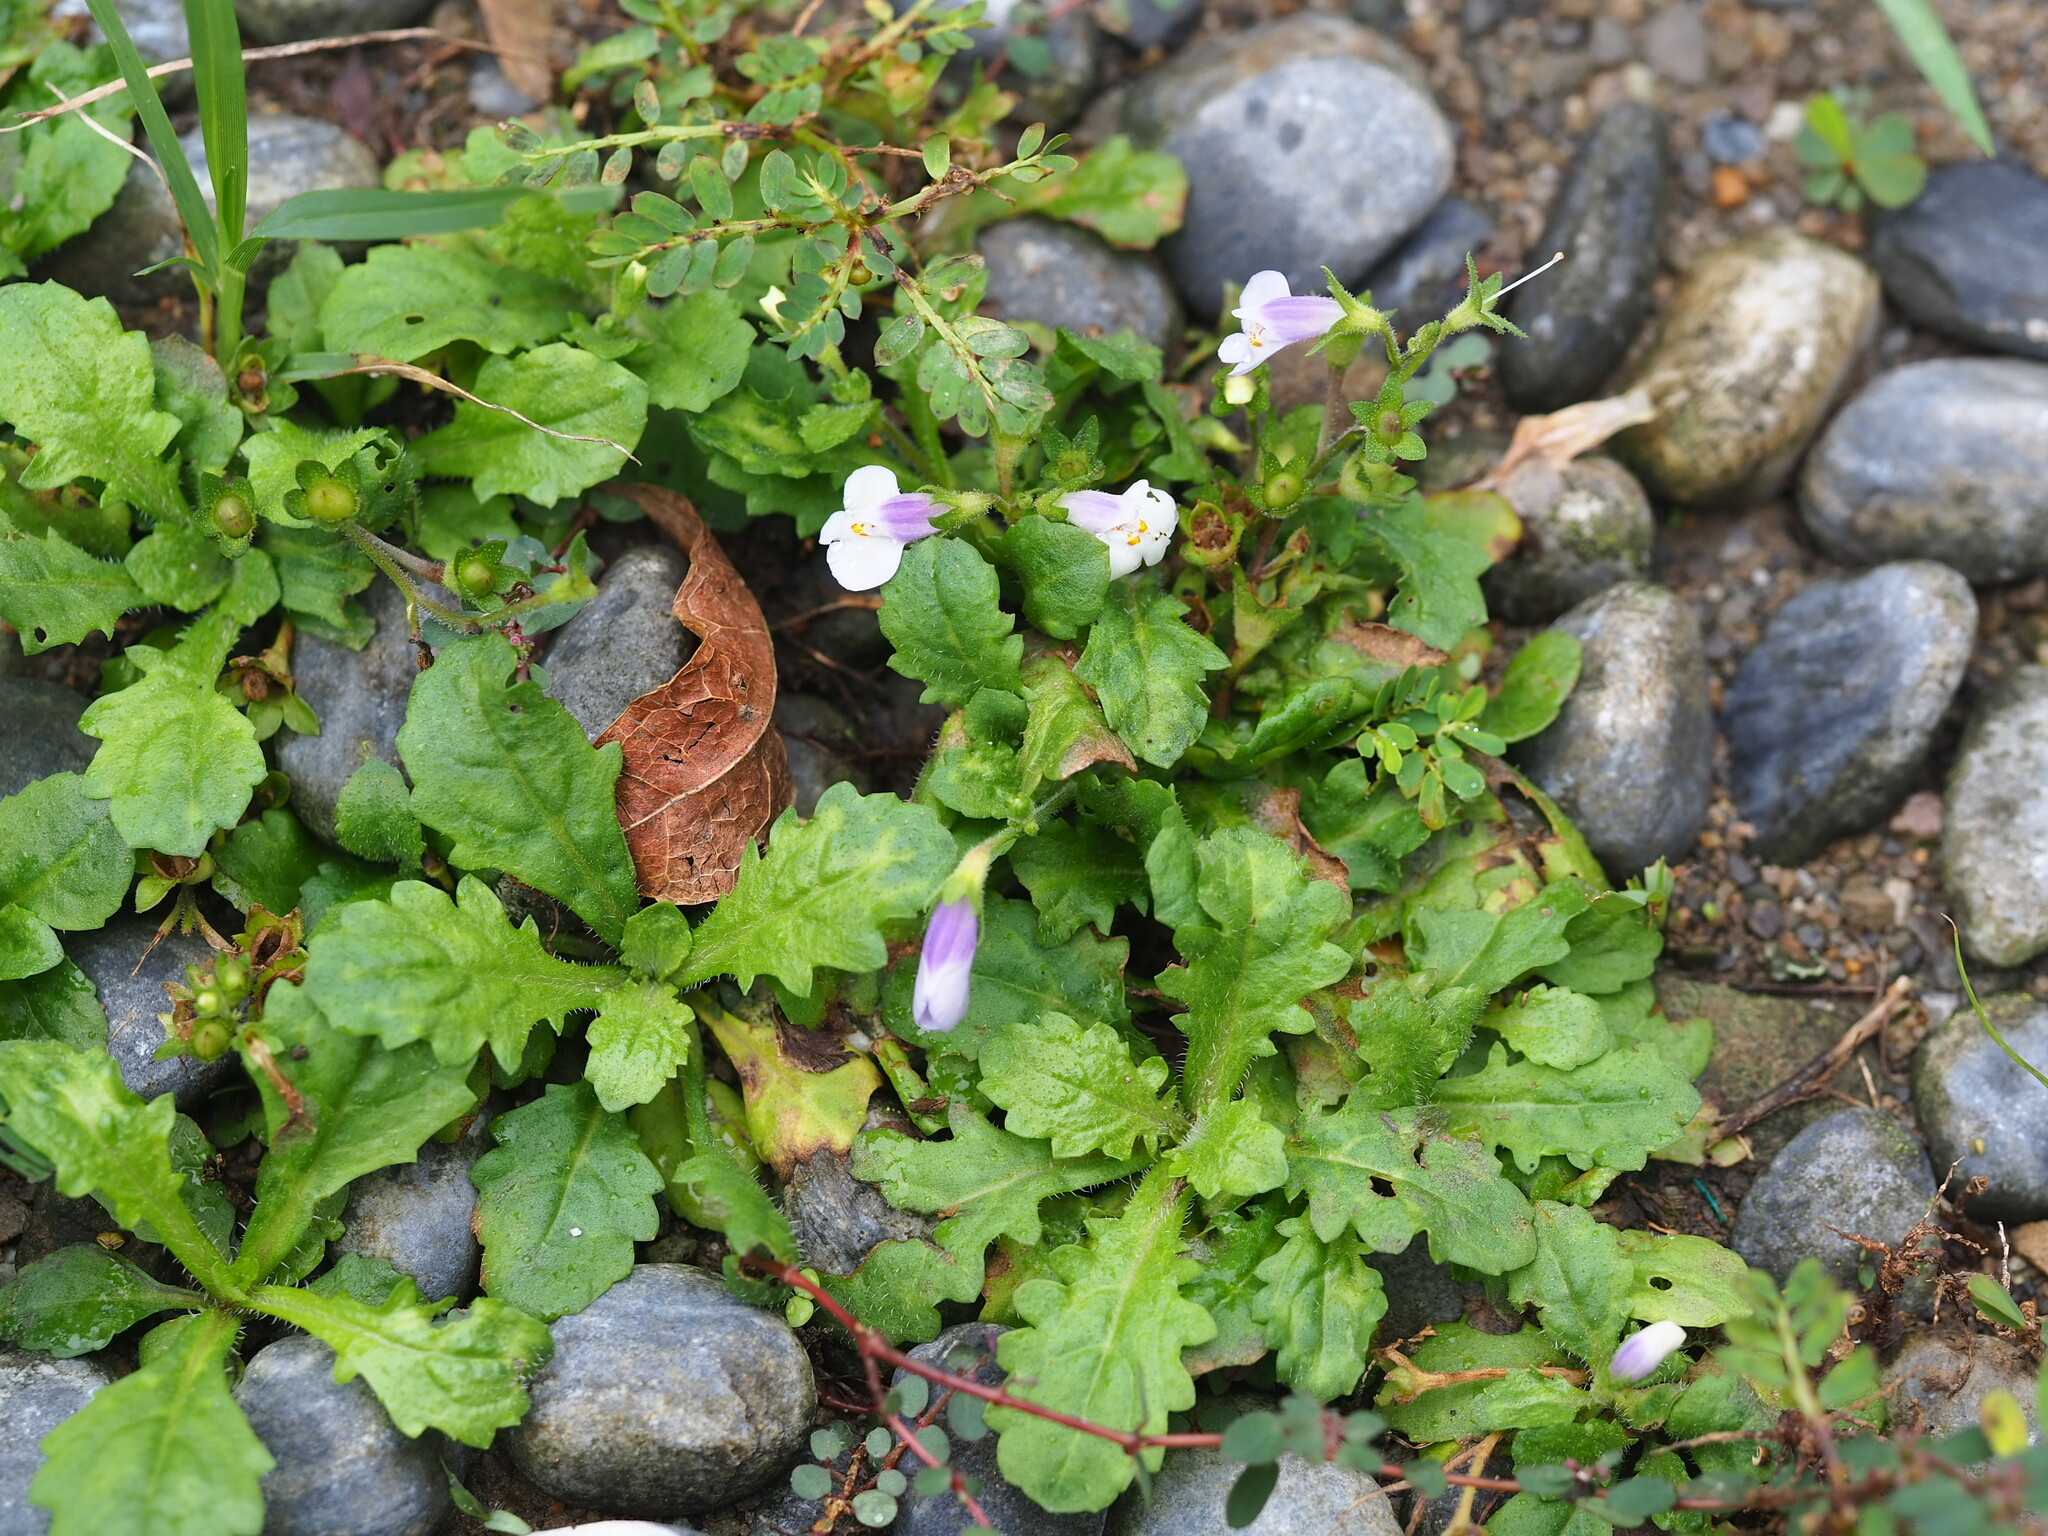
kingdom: Plantae
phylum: Tracheophyta
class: Magnoliopsida
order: Lamiales
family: Mazaceae
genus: Mazus
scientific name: Mazus fauriei
